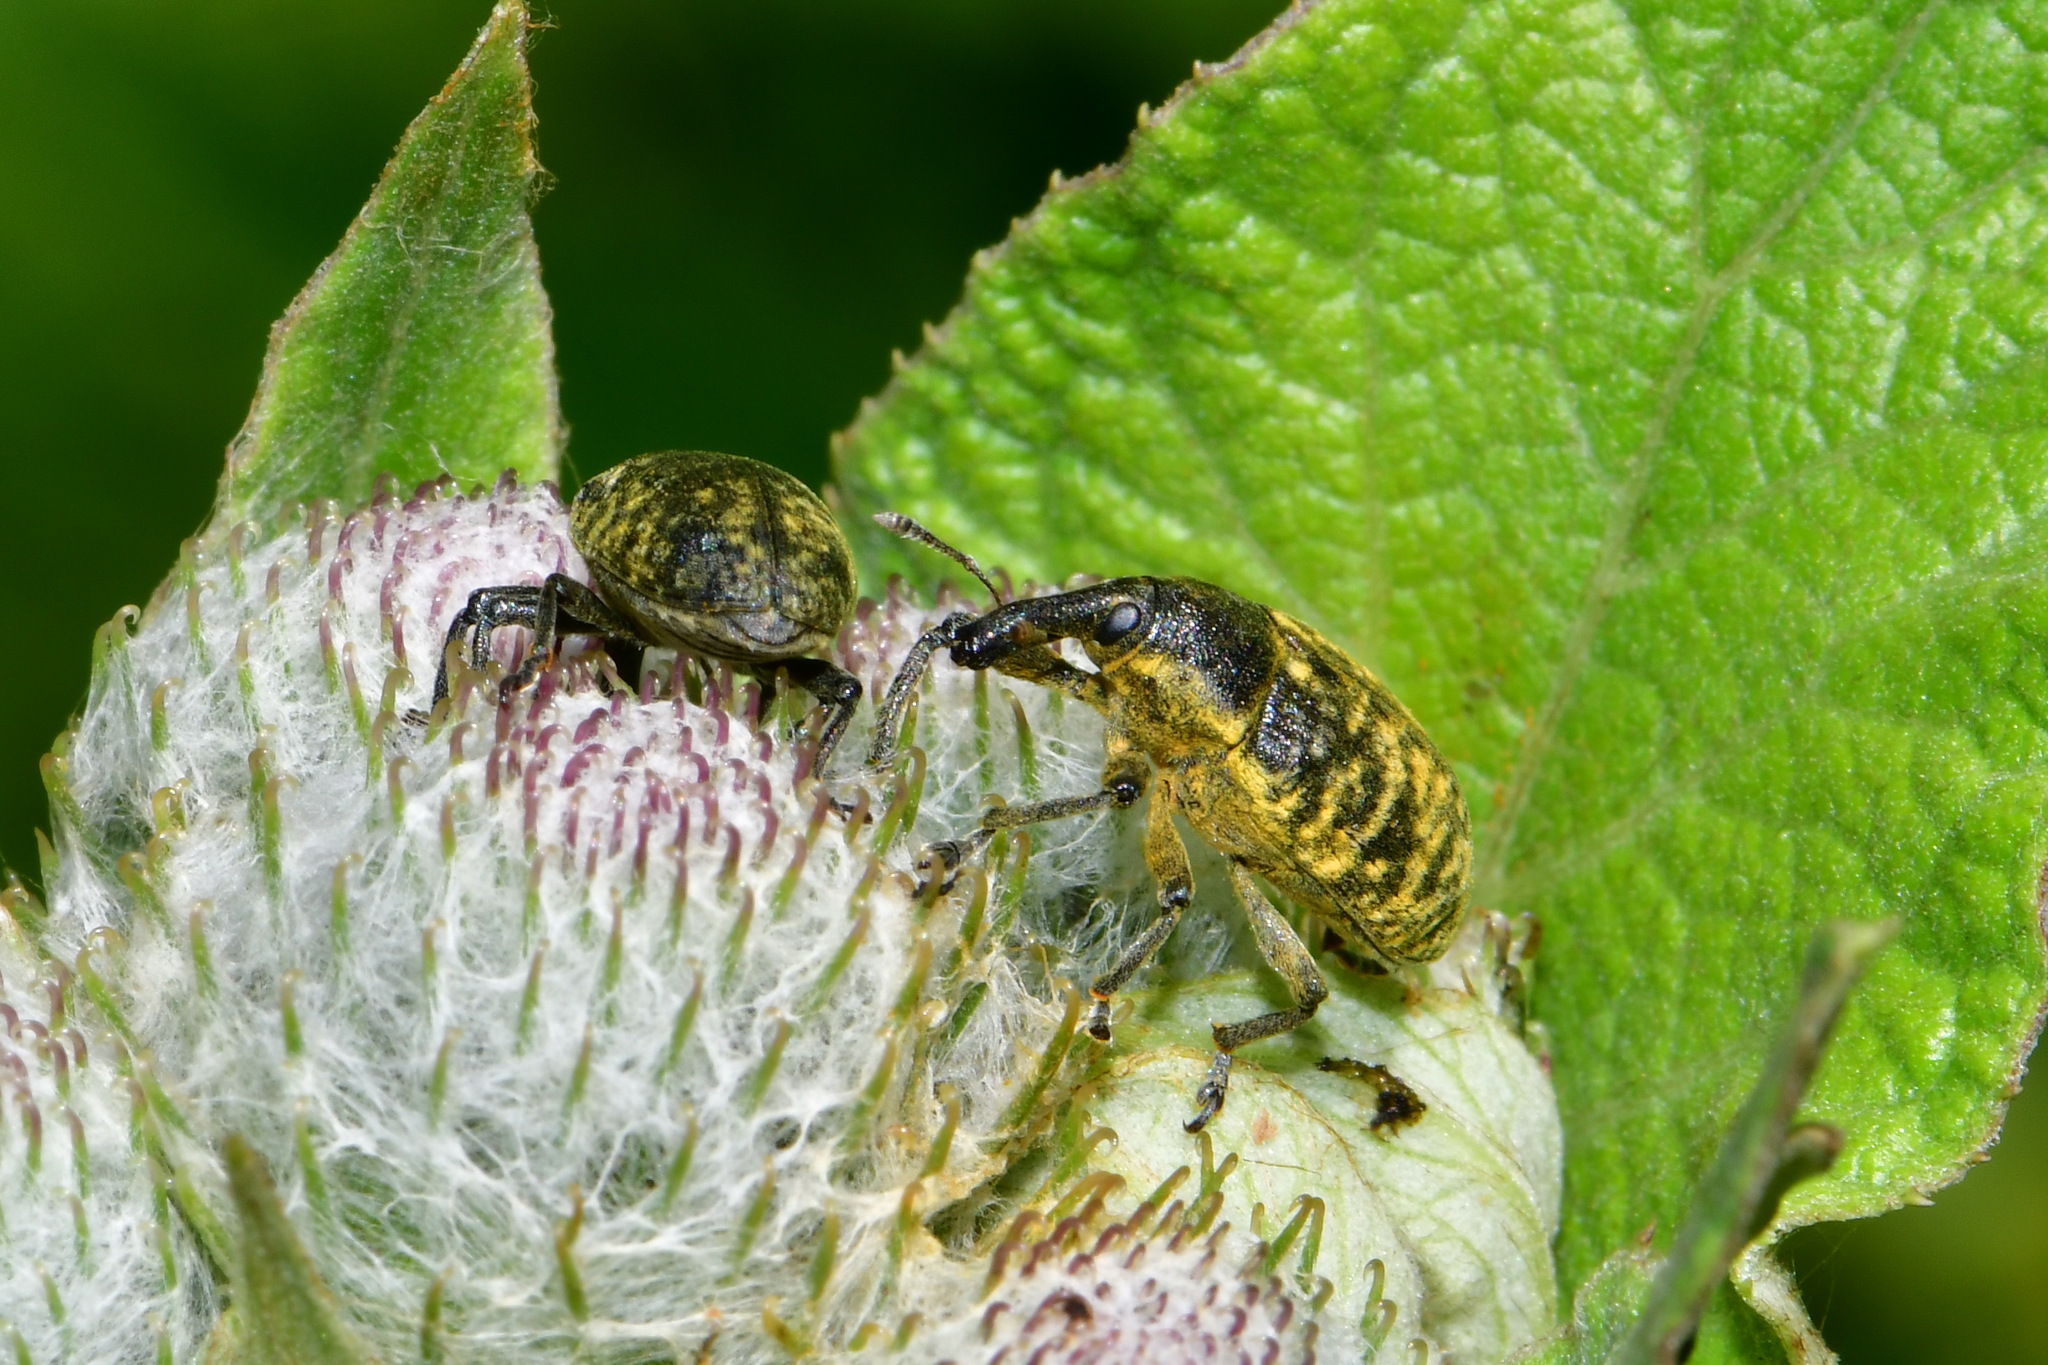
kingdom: Animalia
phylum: Arthropoda
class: Insecta
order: Coleoptera
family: Curculionidae
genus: Larinus
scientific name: Larinus sturnus
